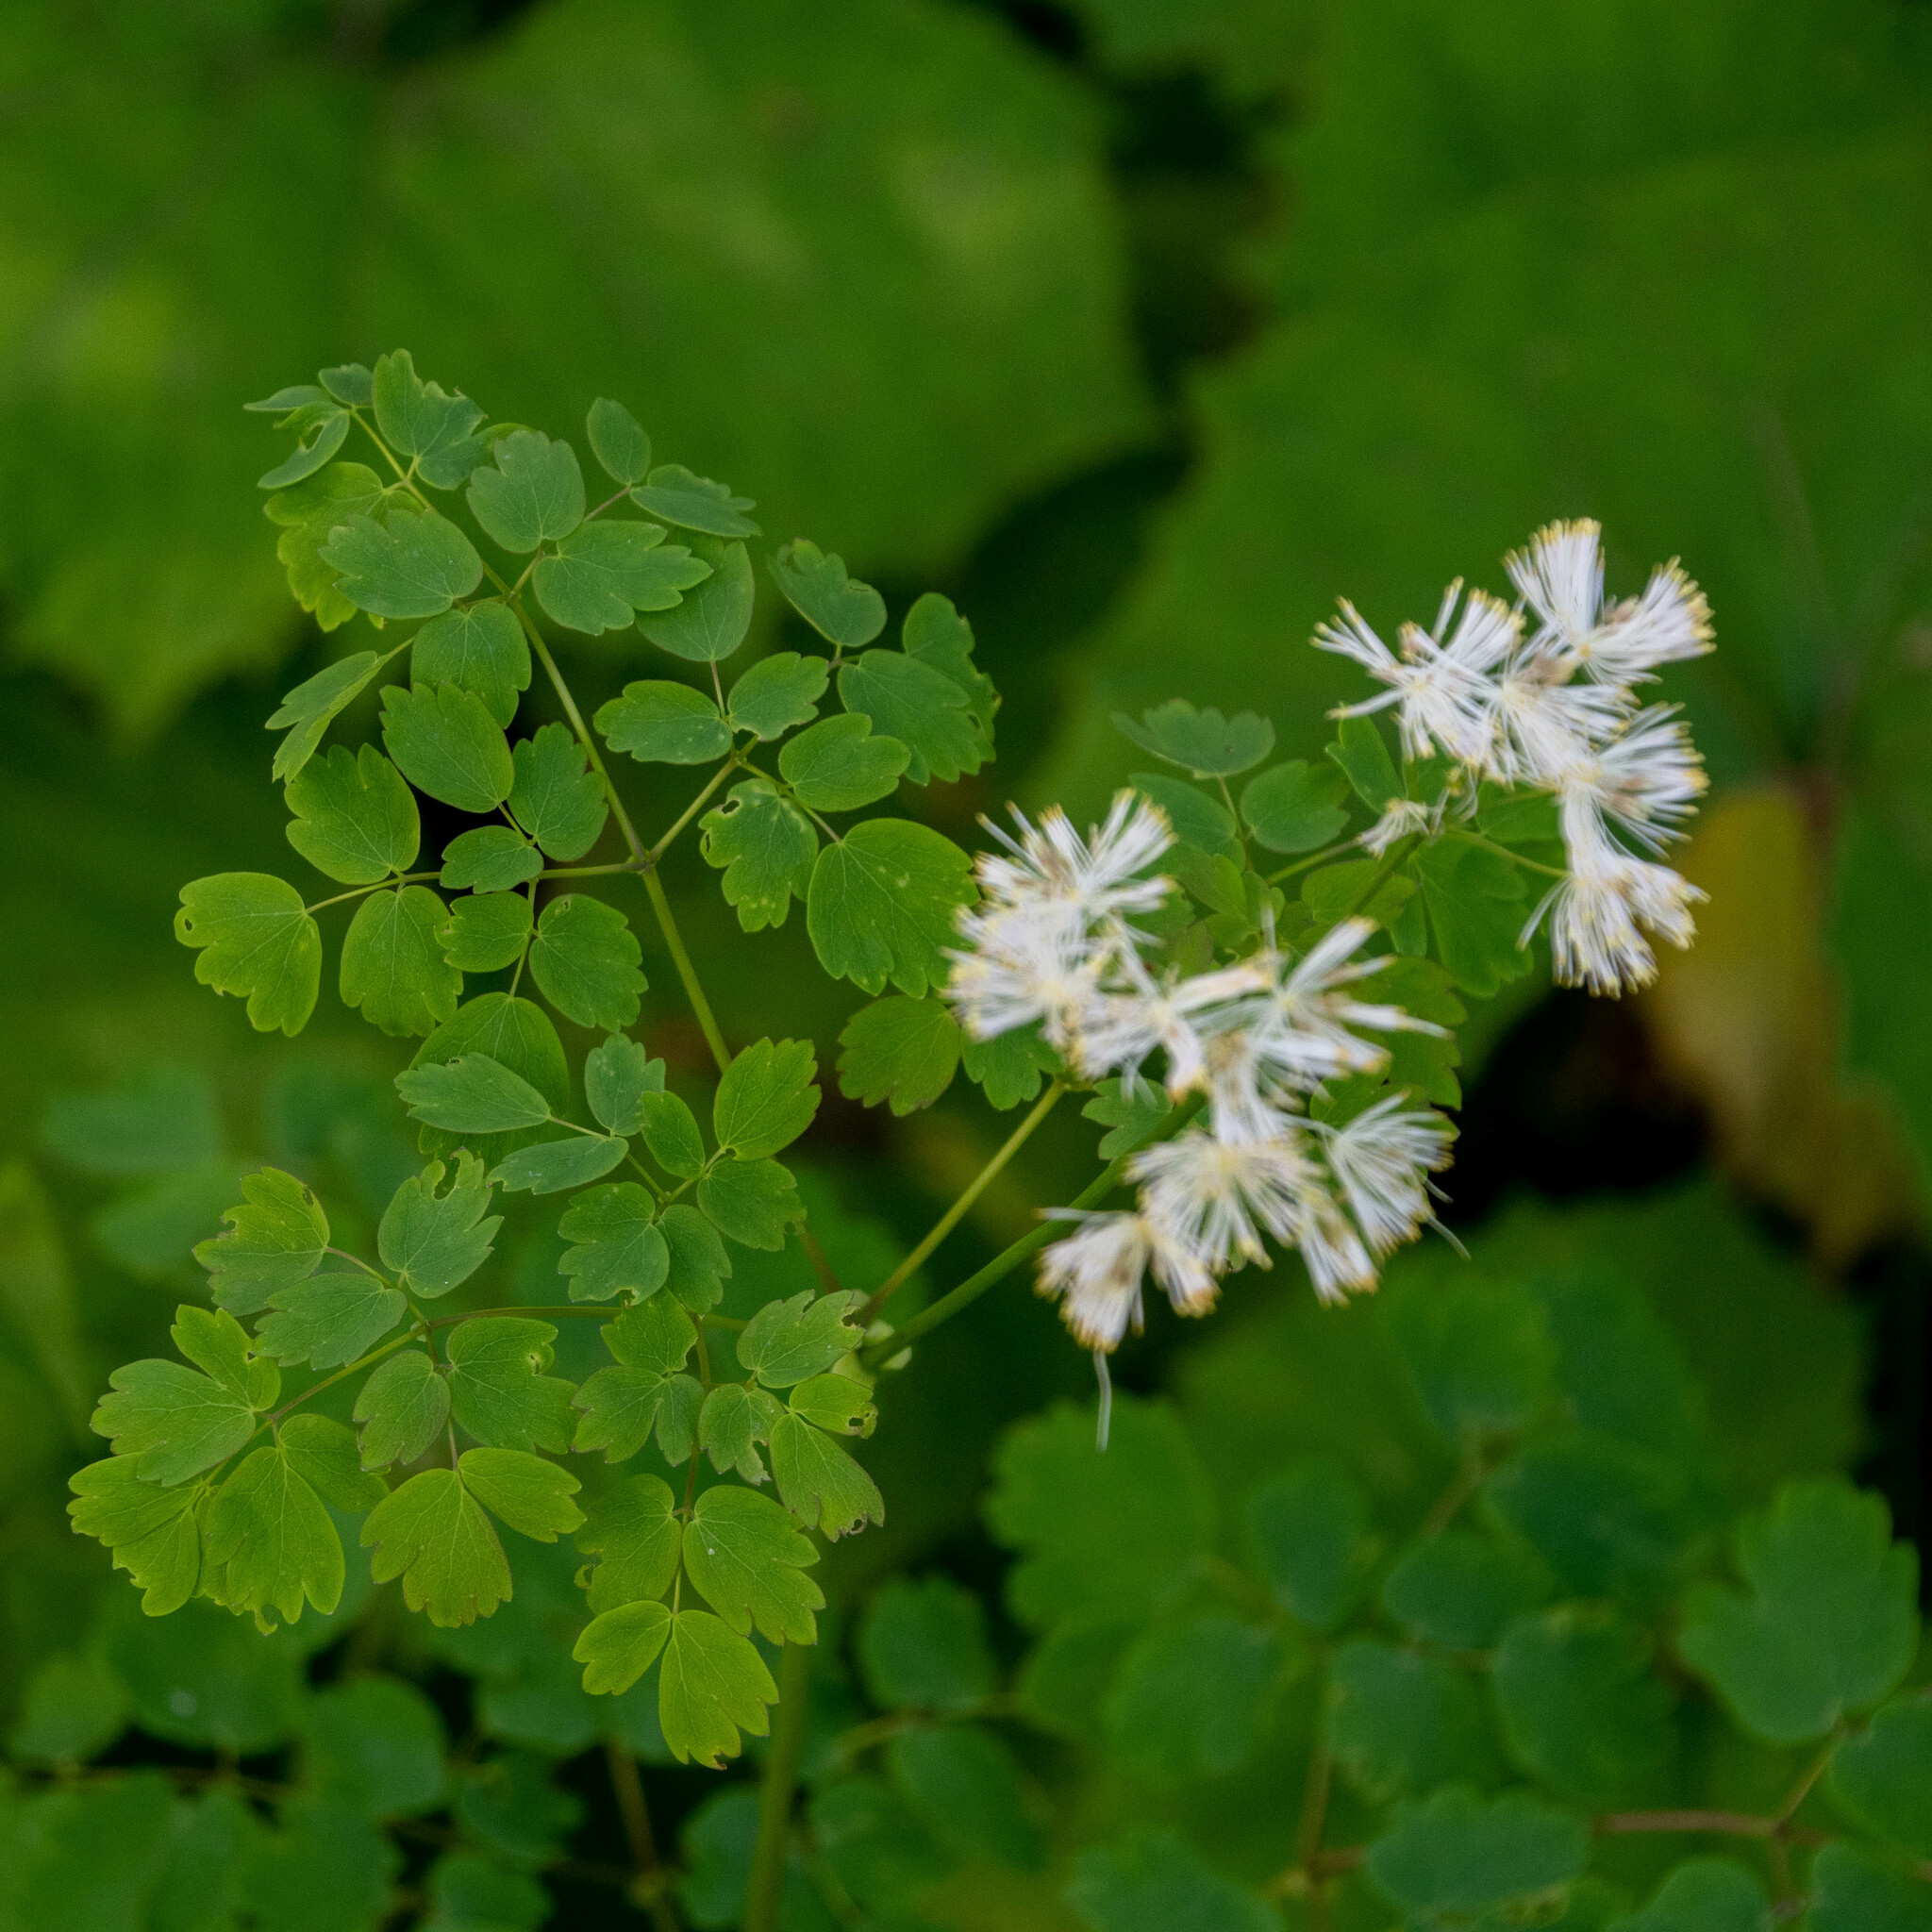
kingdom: Plantae
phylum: Tracheophyta
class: Magnoliopsida
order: Ranunculales
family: Ranunculaceae
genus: Thalictrum
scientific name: Thalictrum aquilegiifolium
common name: French meadow-rue
